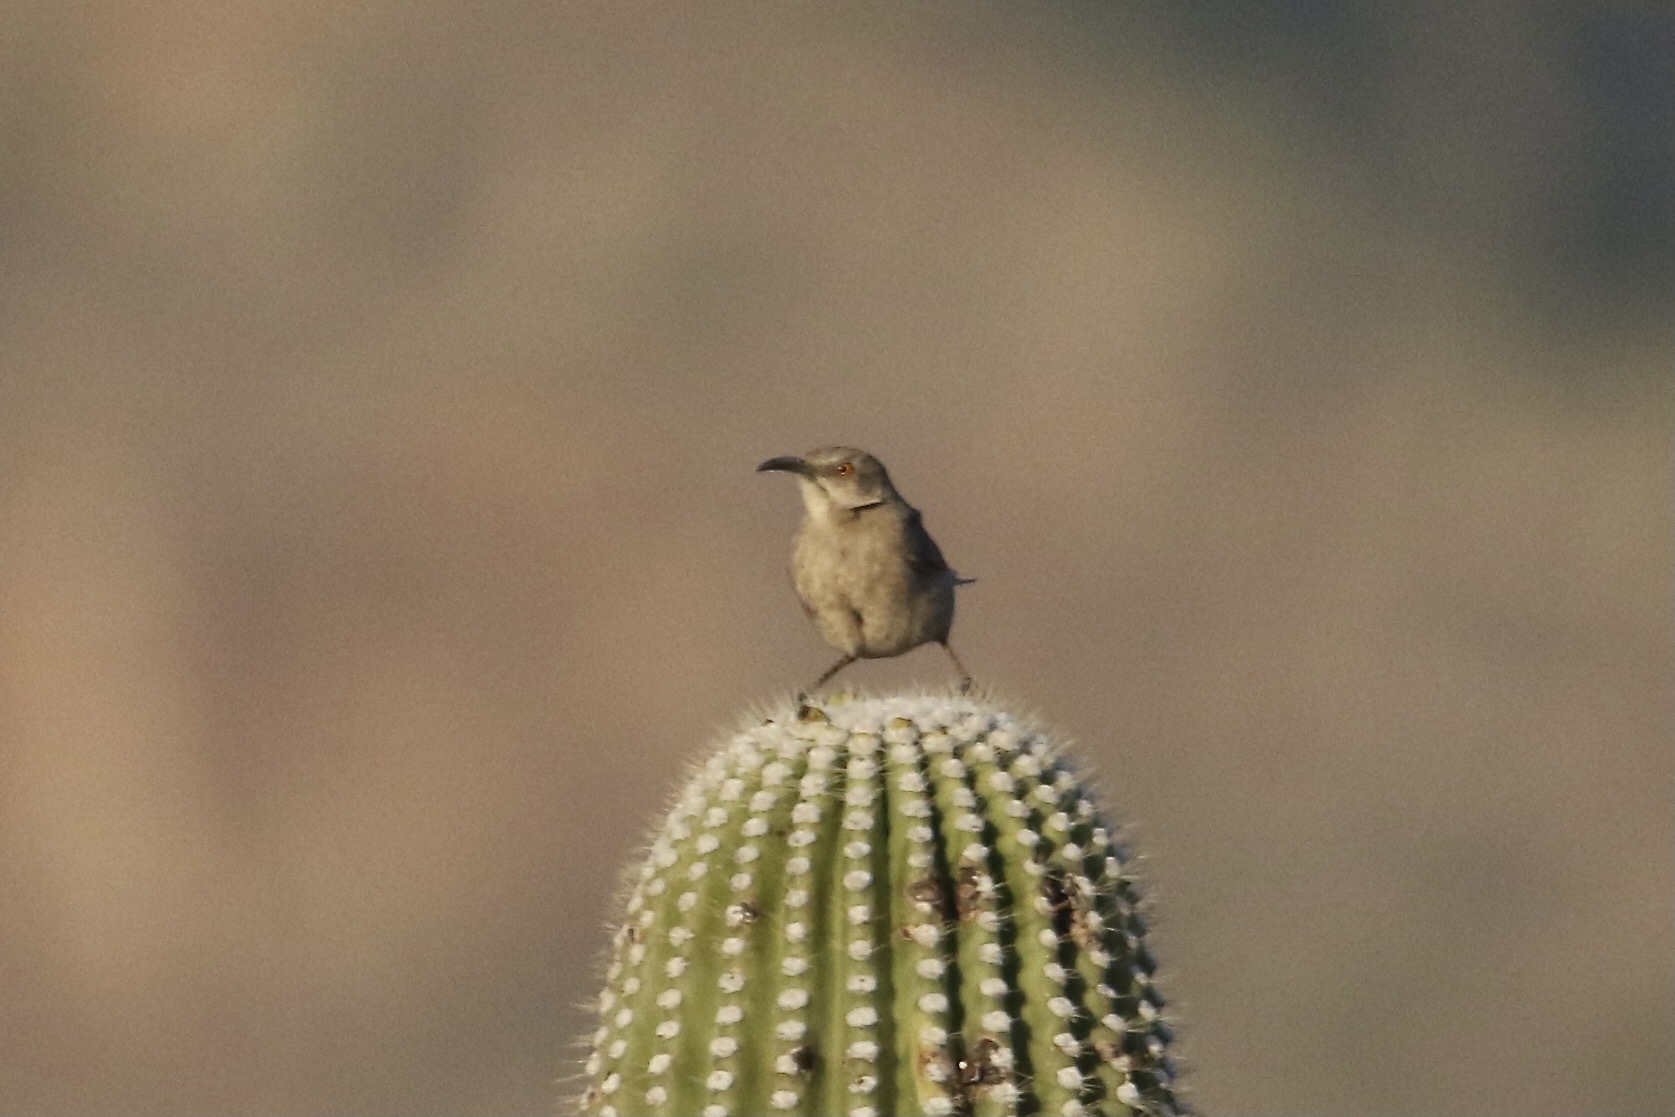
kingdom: Animalia
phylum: Chordata
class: Aves
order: Passeriformes
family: Mimidae
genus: Toxostoma
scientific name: Toxostoma curvirostre
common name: Curve-billed thrasher
